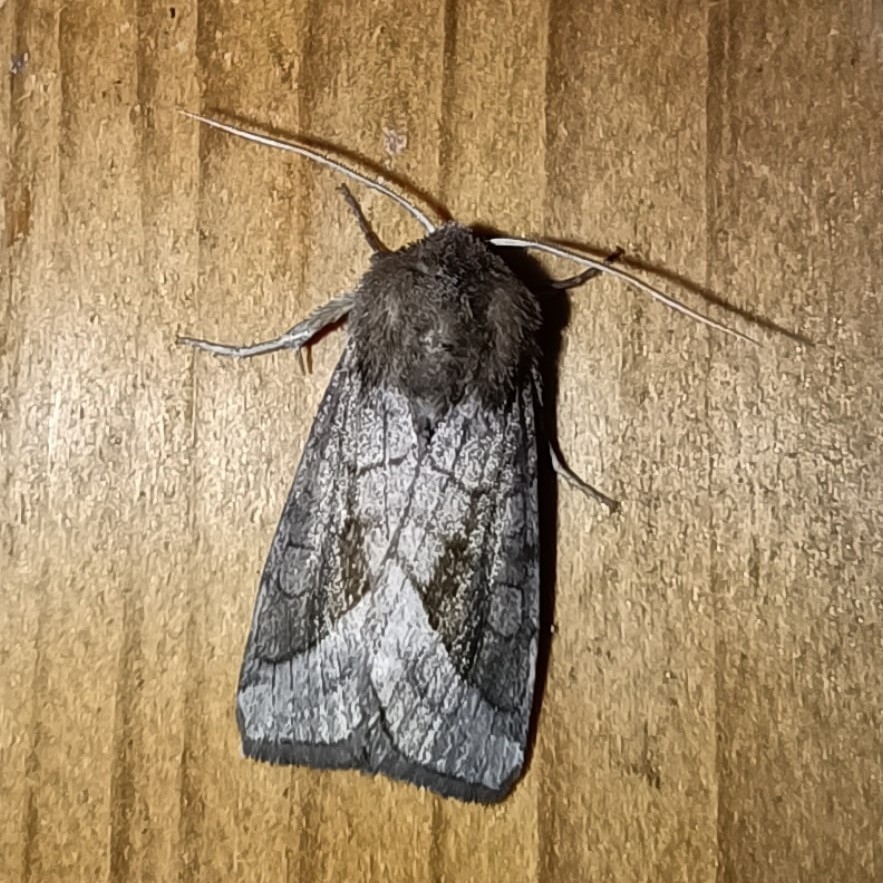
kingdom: Animalia
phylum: Arthropoda
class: Insecta
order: Lepidoptera
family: Noctuidae
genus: Hydraecia
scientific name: Hydraecia micacea
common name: Rosy rustic
